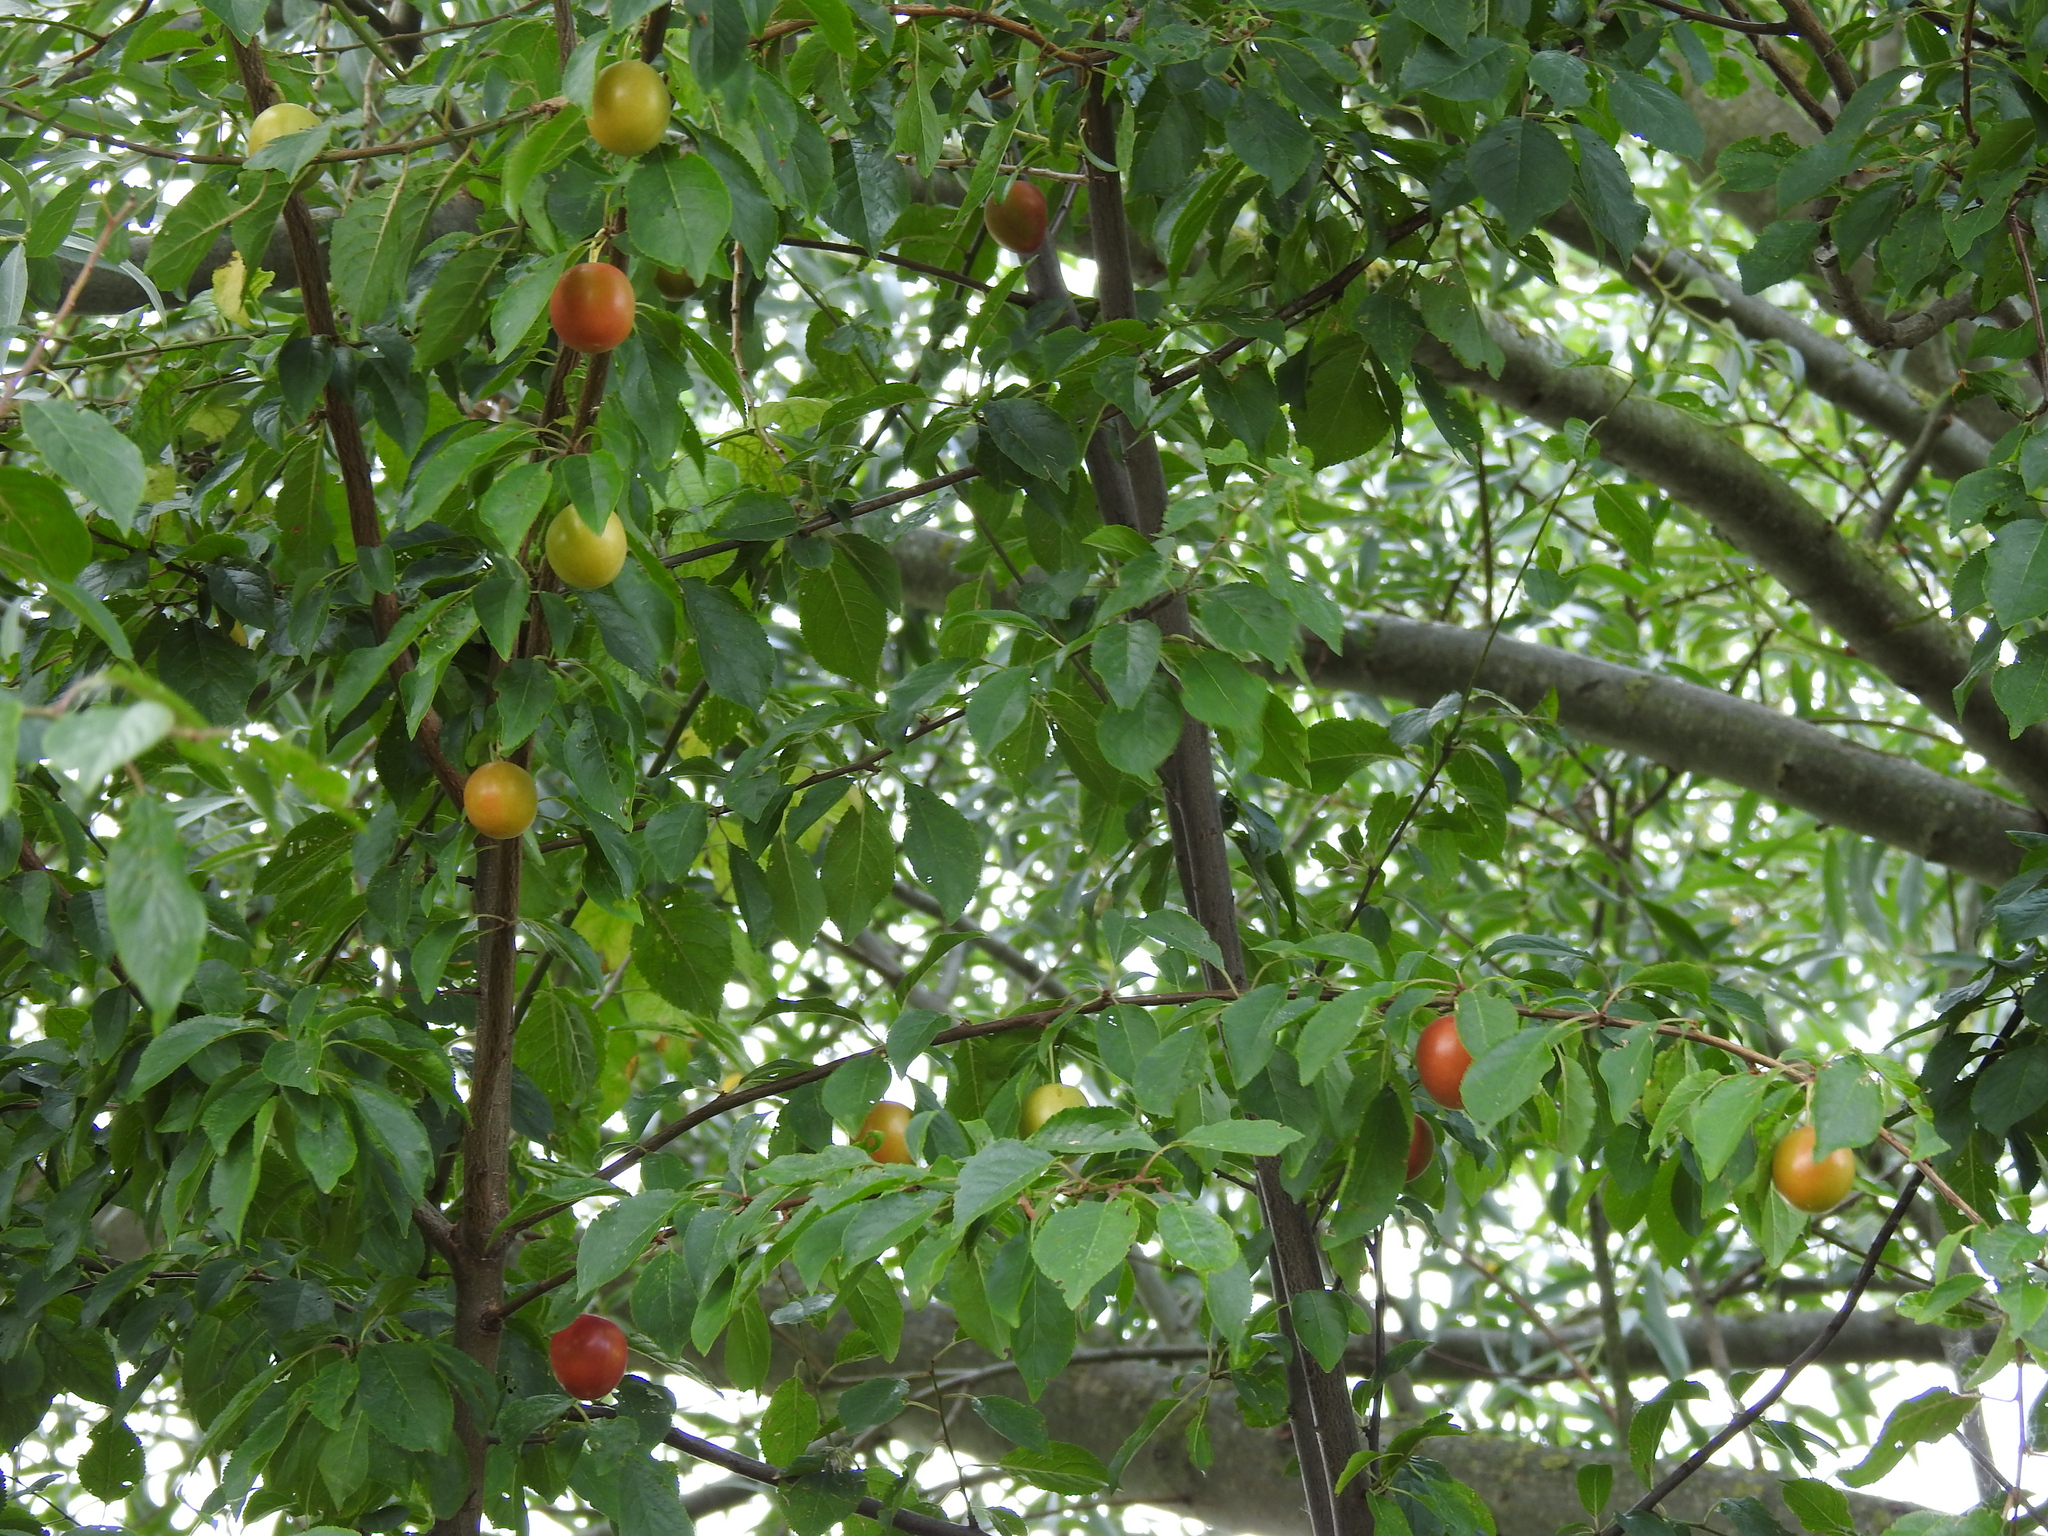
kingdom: Plantae
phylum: Tracheophyta
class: Magnoliopsida
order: Rosales
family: Rosaceae
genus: Prunus
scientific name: Prunus cerasifera
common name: Cherry plum
